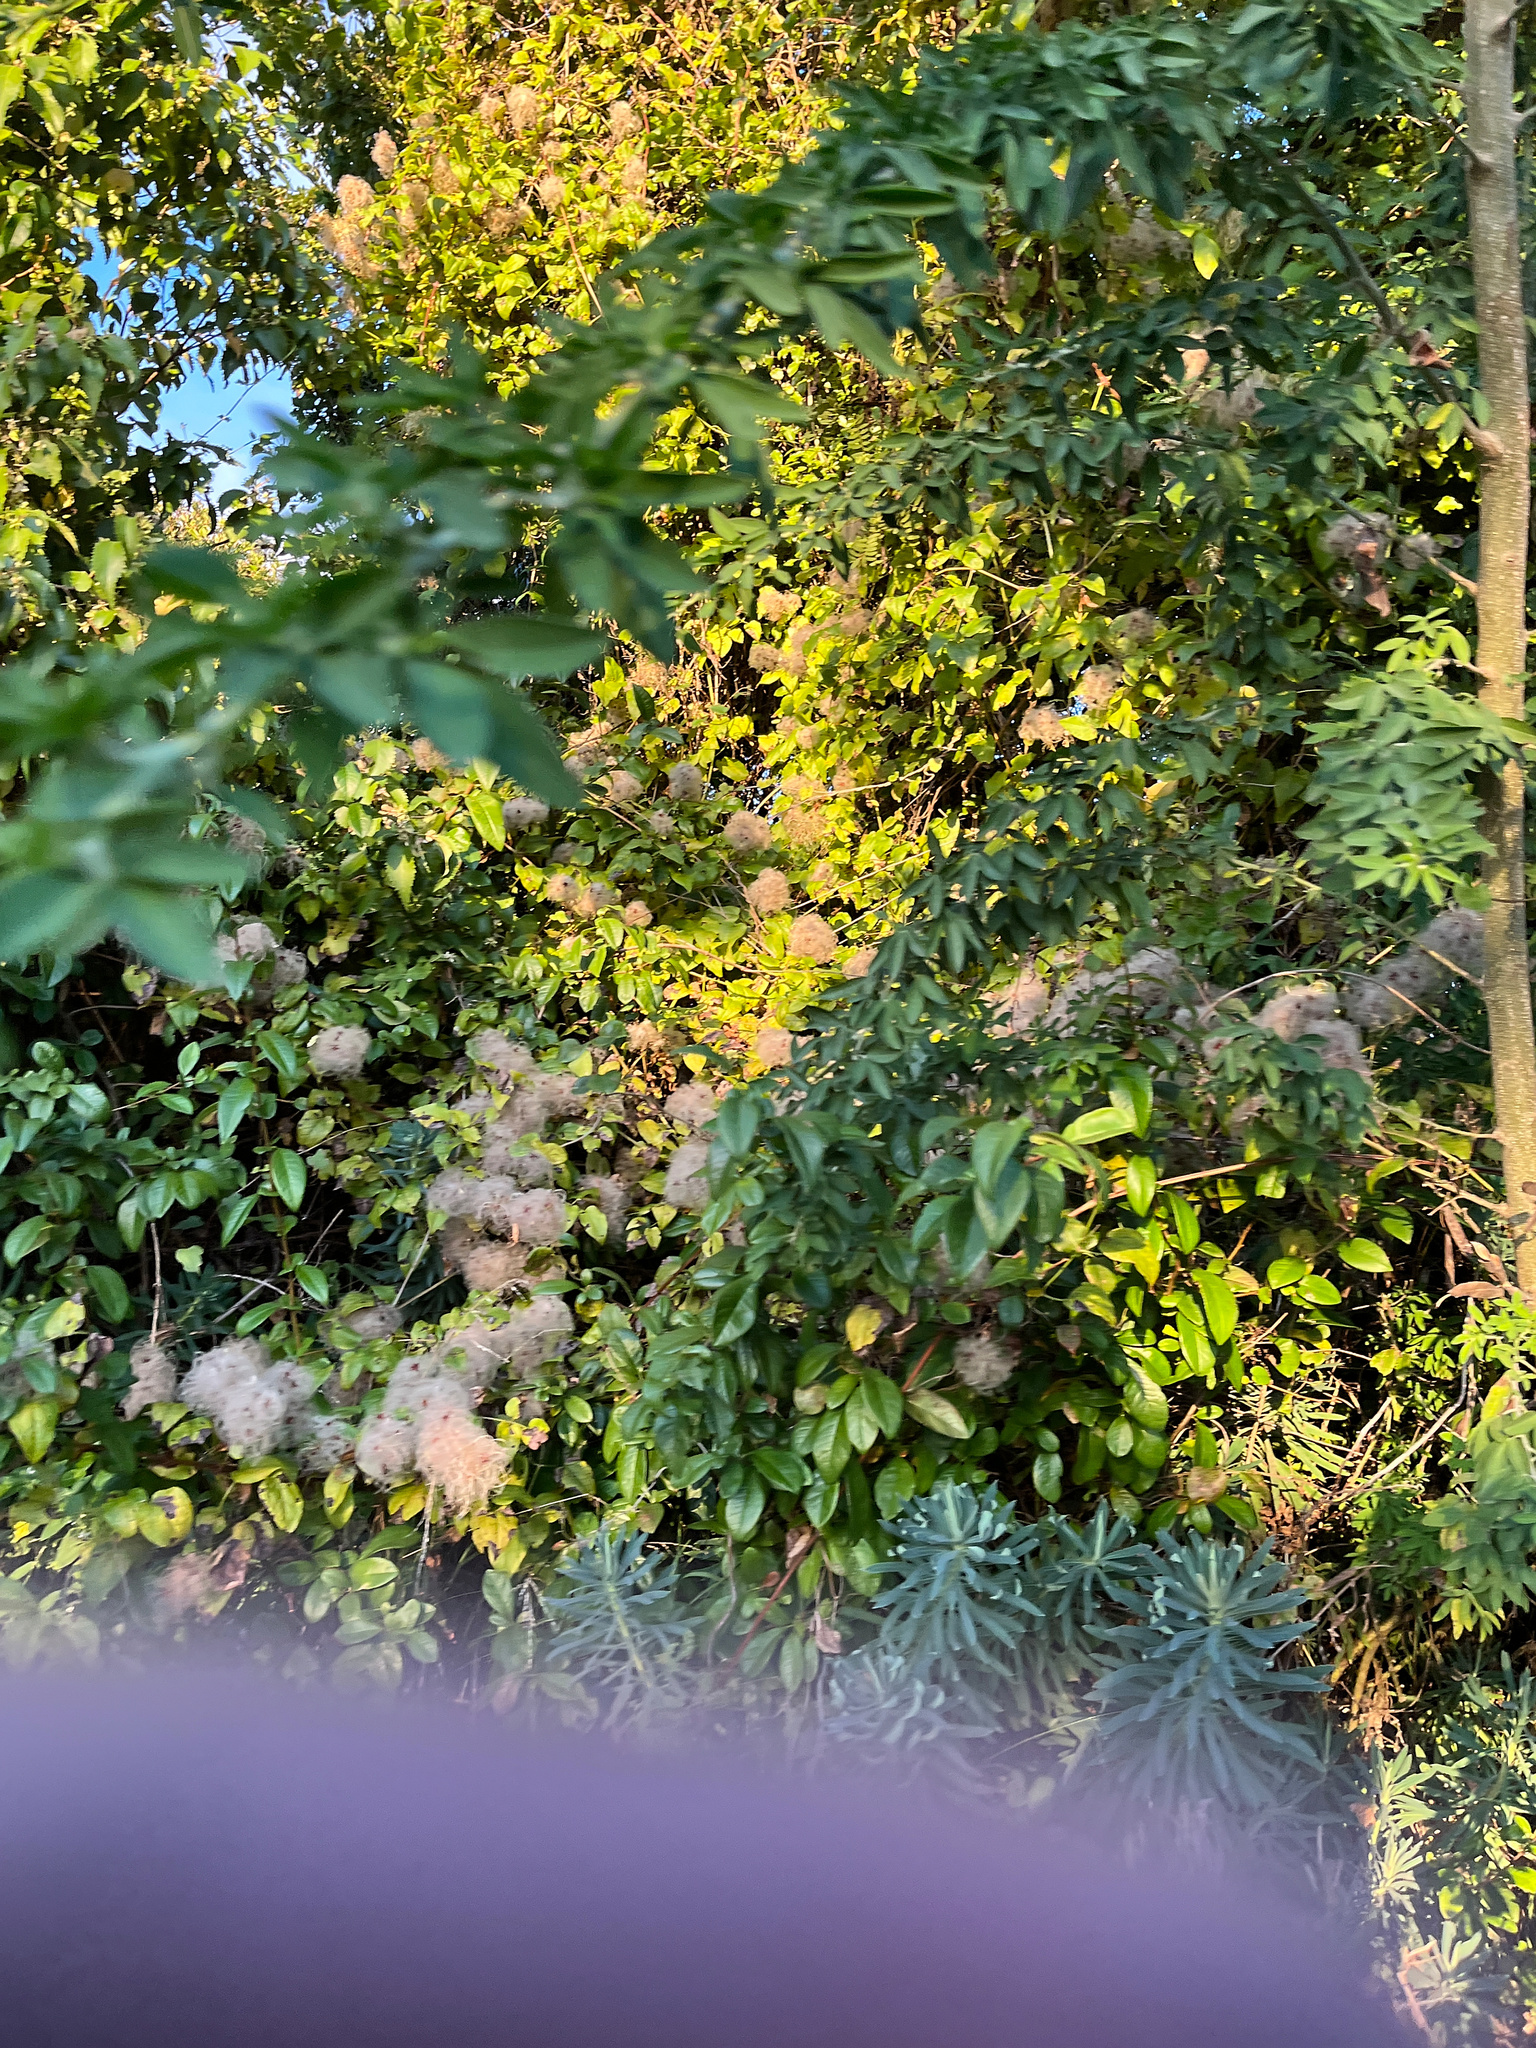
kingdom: Plantae
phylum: Tracheophyta
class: Magnoliopsida
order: Ranunculales
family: Ranunculaceae
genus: Clematis
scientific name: Clematis vitalba
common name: Evergreen clematis
